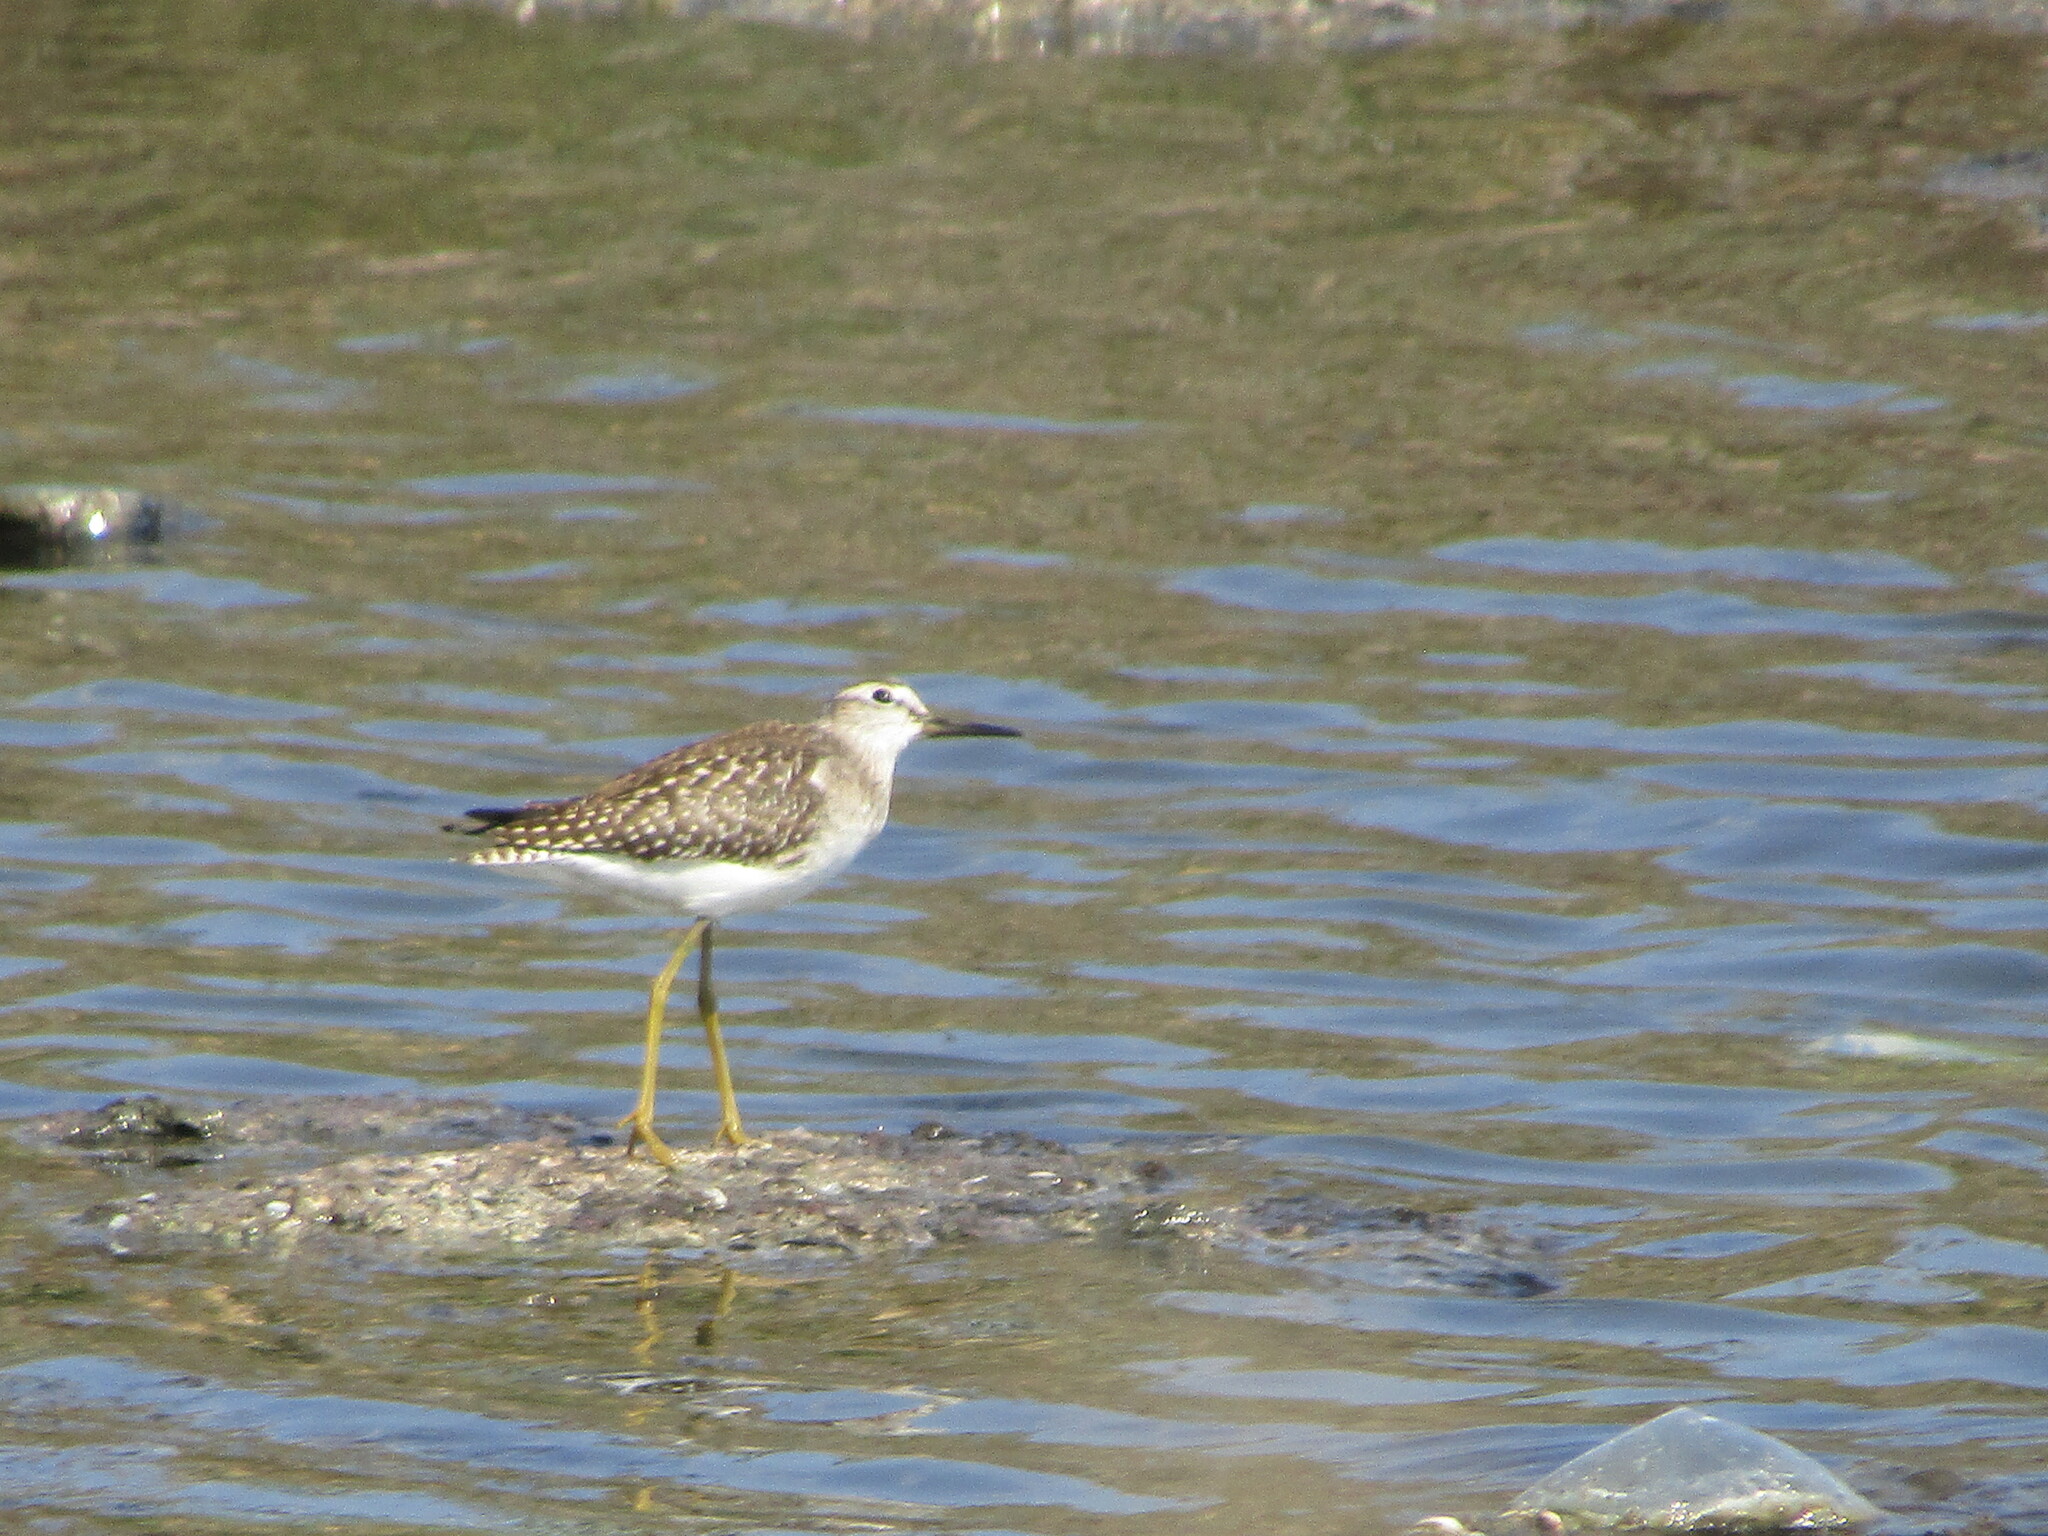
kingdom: Animalia
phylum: Chordata
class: Aves
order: Charadriiformes
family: Scolopacidae
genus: Tringa
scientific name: Tringa glareola
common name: Wood sandpiper
